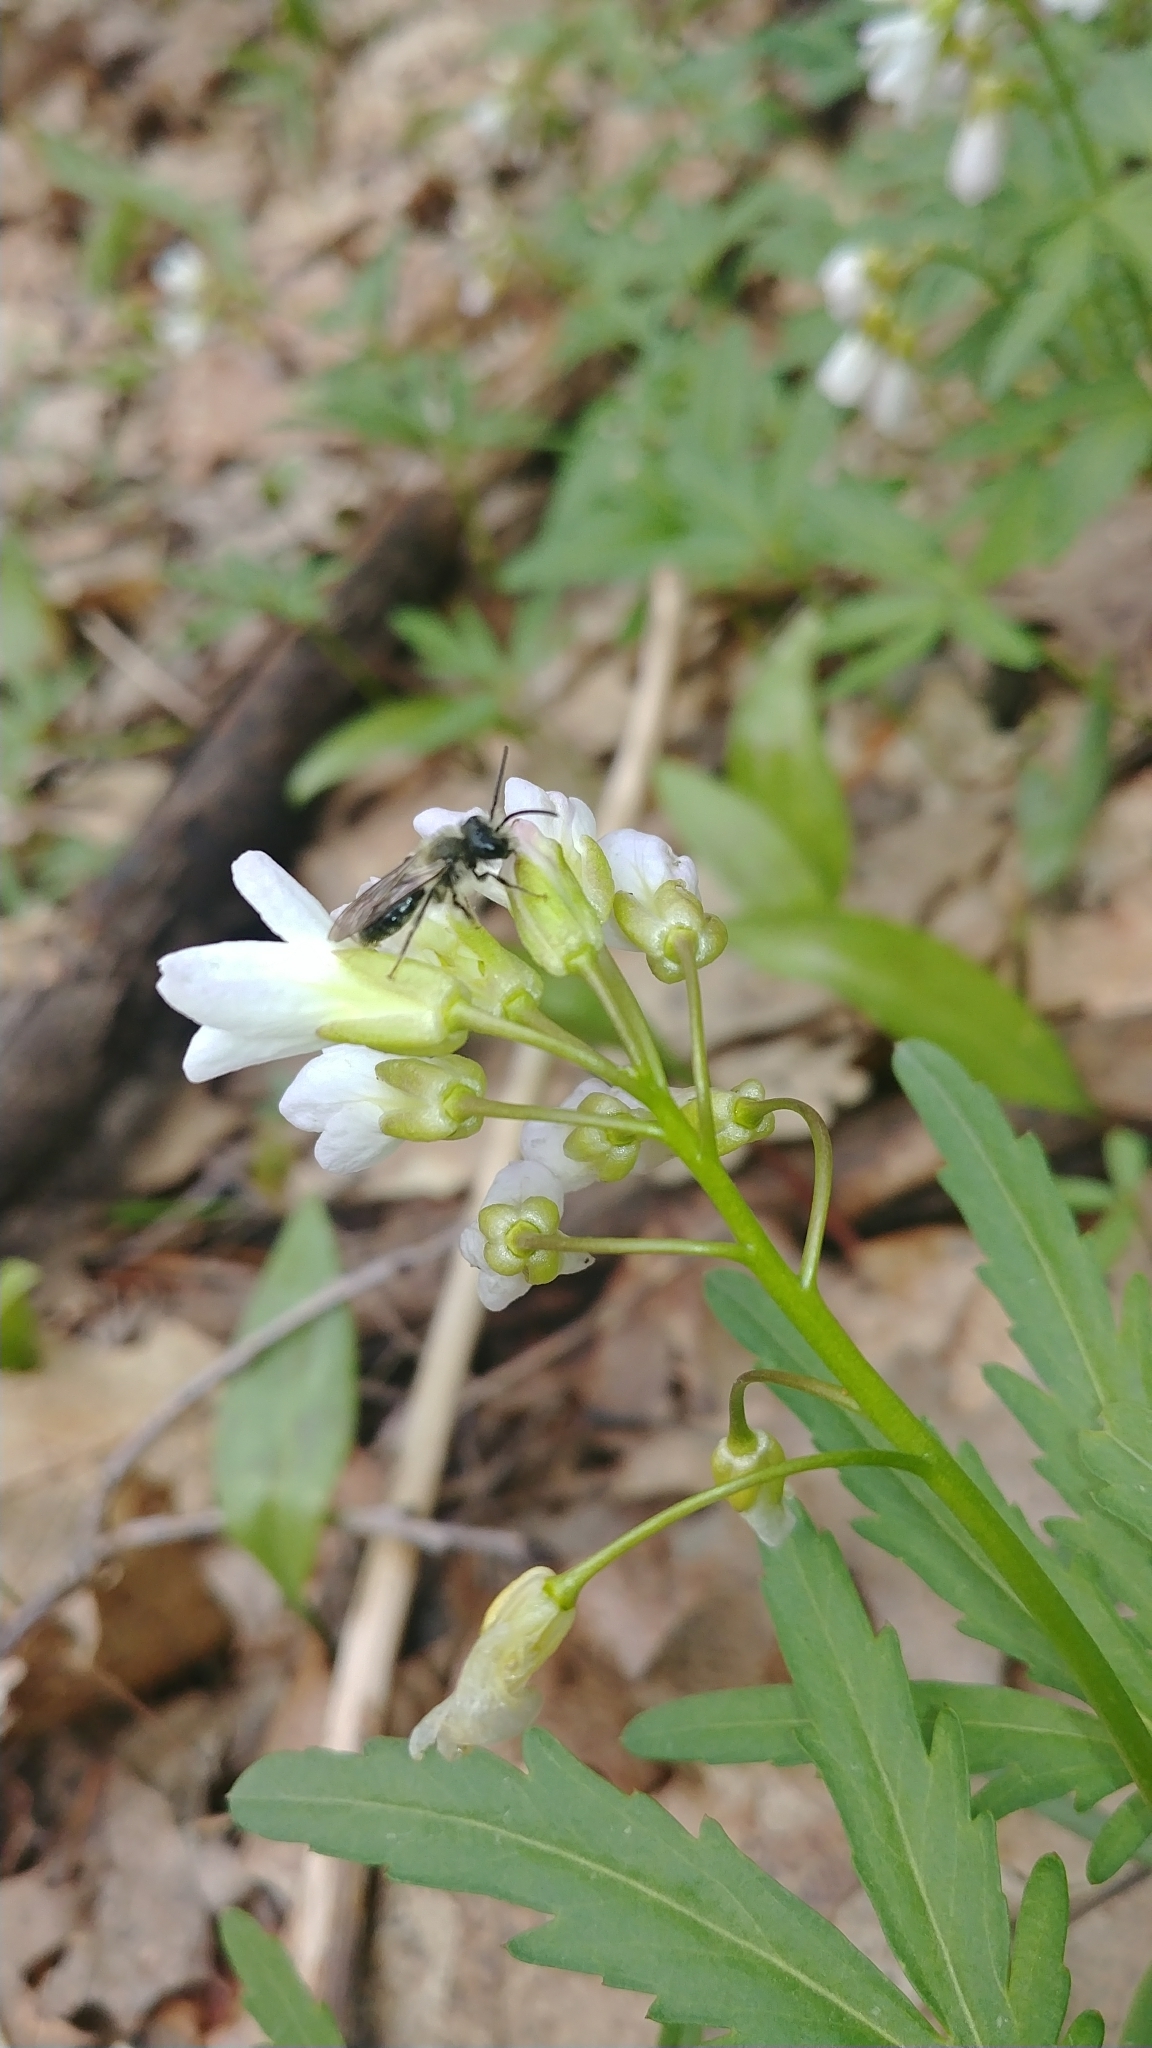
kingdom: Animalia
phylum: Arthropoda
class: Insecta
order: Hymenoptera
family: Andrenidae
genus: Andrena
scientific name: Andrena erigeniae
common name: Spring beauty miner
